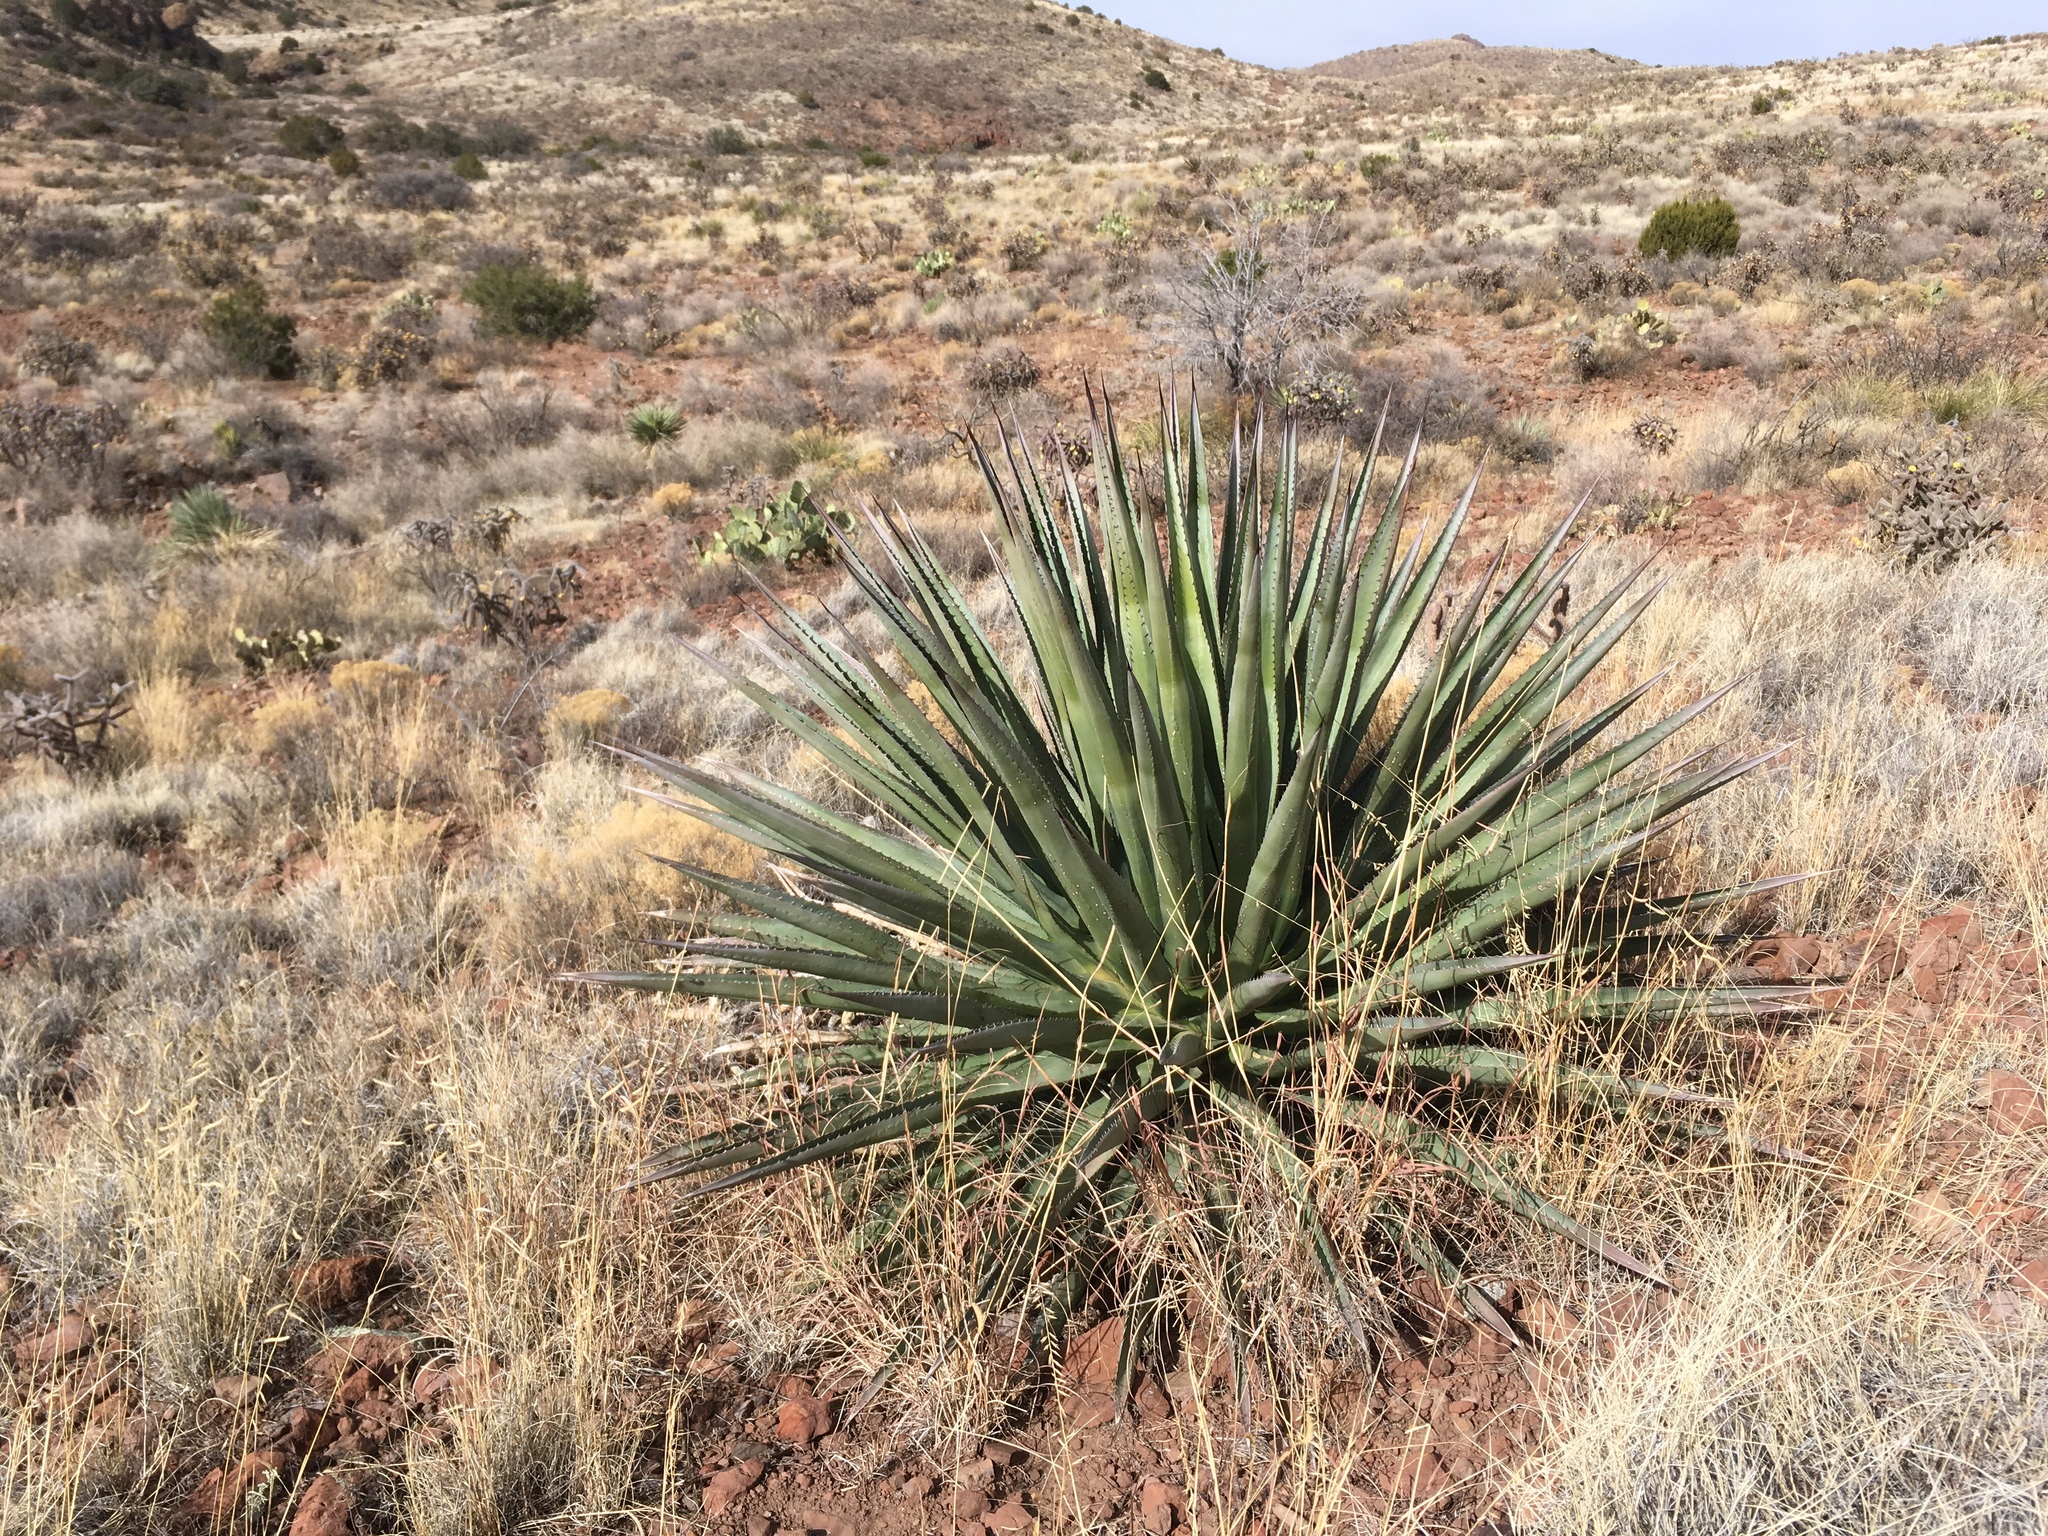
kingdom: Plantae
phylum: Tracheophyta
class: Liliopsida
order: Asparagales
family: Asparagaceae
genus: Agave
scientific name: Agave palmeri
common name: Palmer agave
